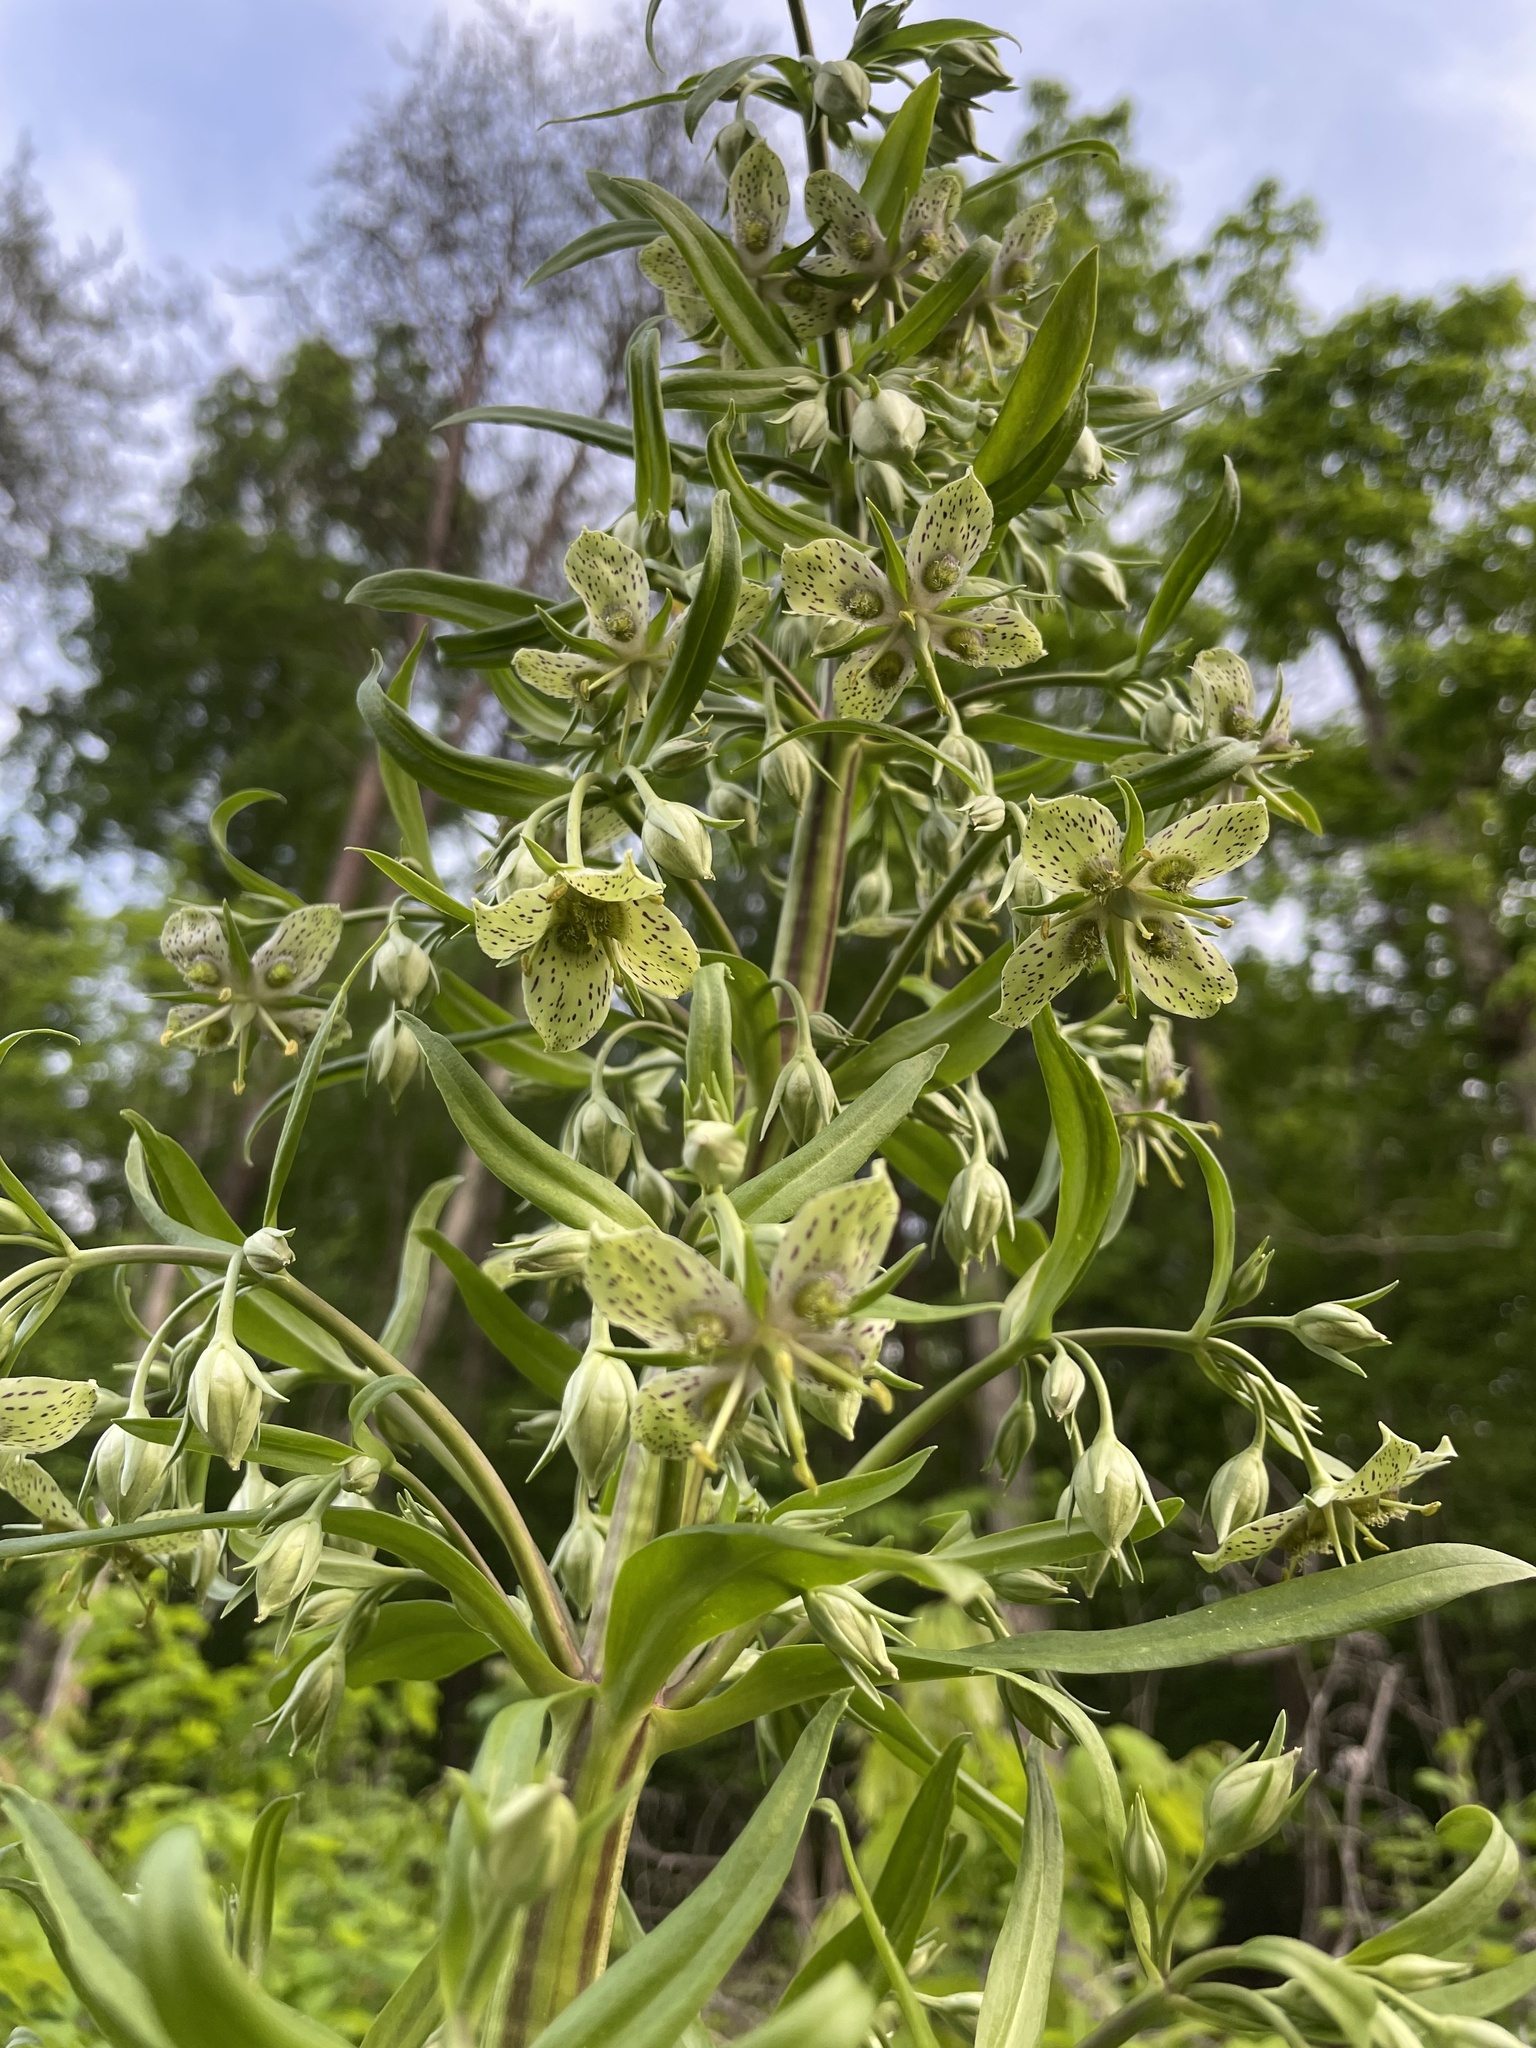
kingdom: Plantae
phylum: Tracheophyta
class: Magnoliopsida
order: Gentianales
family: Gentianaceae
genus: Frasera
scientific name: Frasera caroliniensis
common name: American columbo
